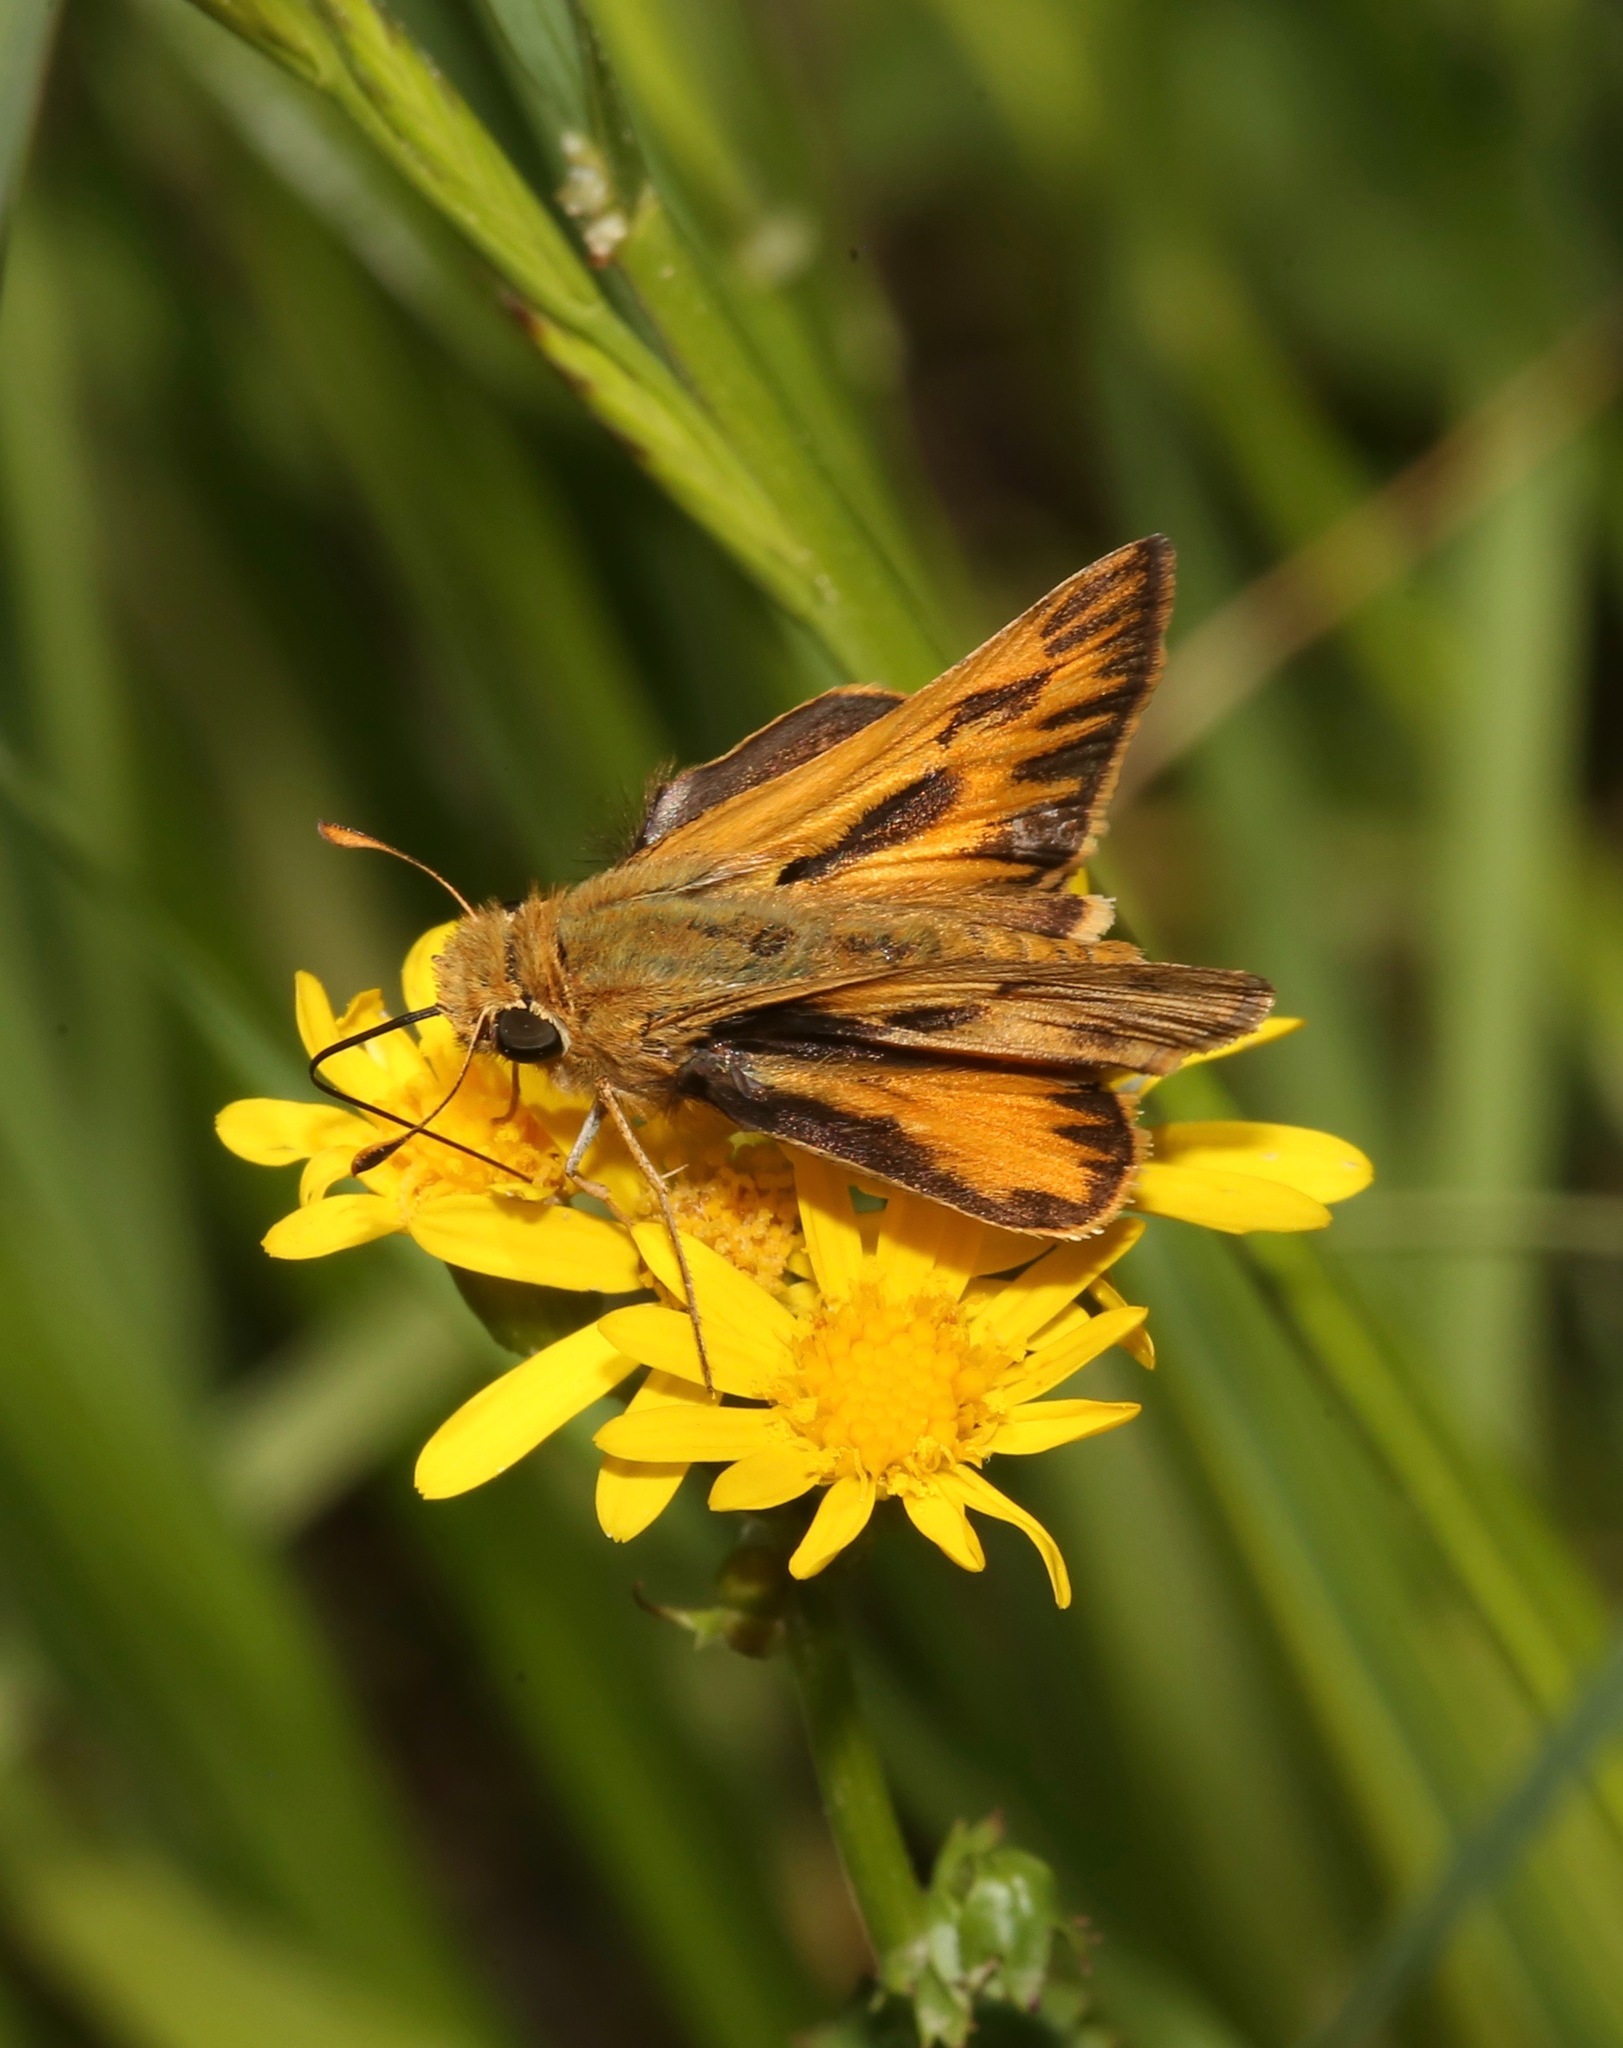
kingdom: Animalia
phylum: Arthropoda
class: Insecta
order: Lepidoptera
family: Hesperiidae
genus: Hylephila
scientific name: Hylephila phyleus
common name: Fiery skipper
